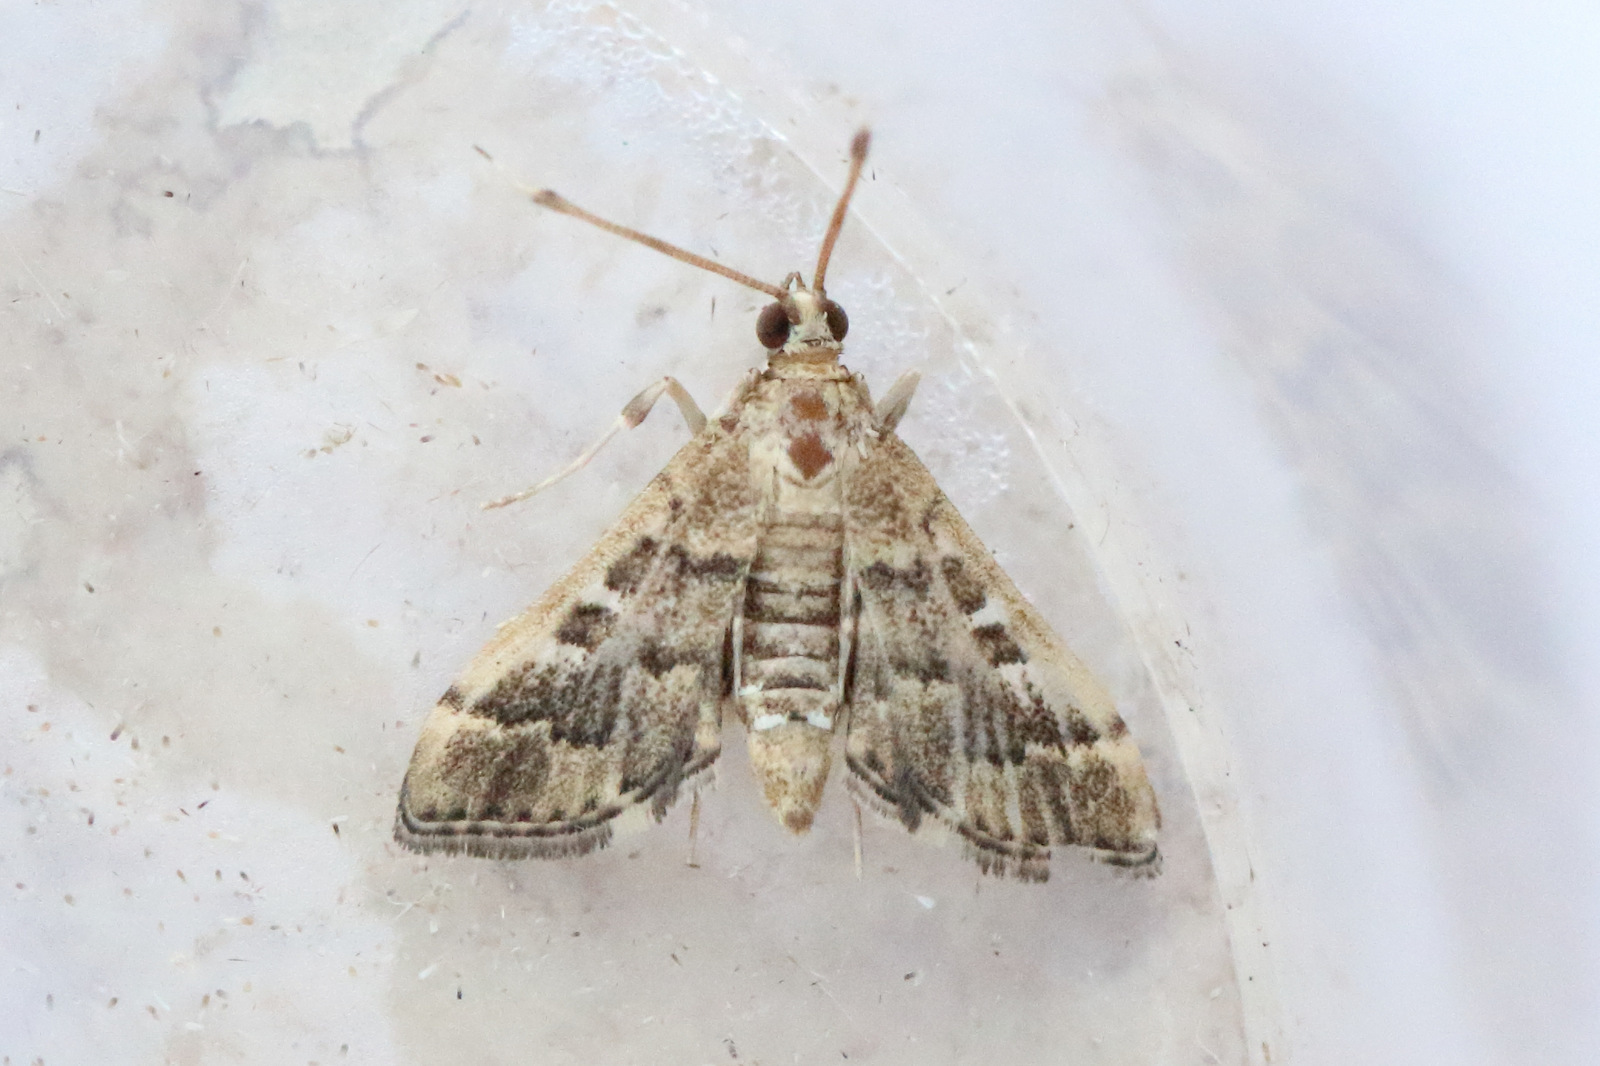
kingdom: Animalia
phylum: Arthropoda
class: Insecta
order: Lepidoptera
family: Crambidae
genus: Nacoleia
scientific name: Nacoleia rhoeoalis
